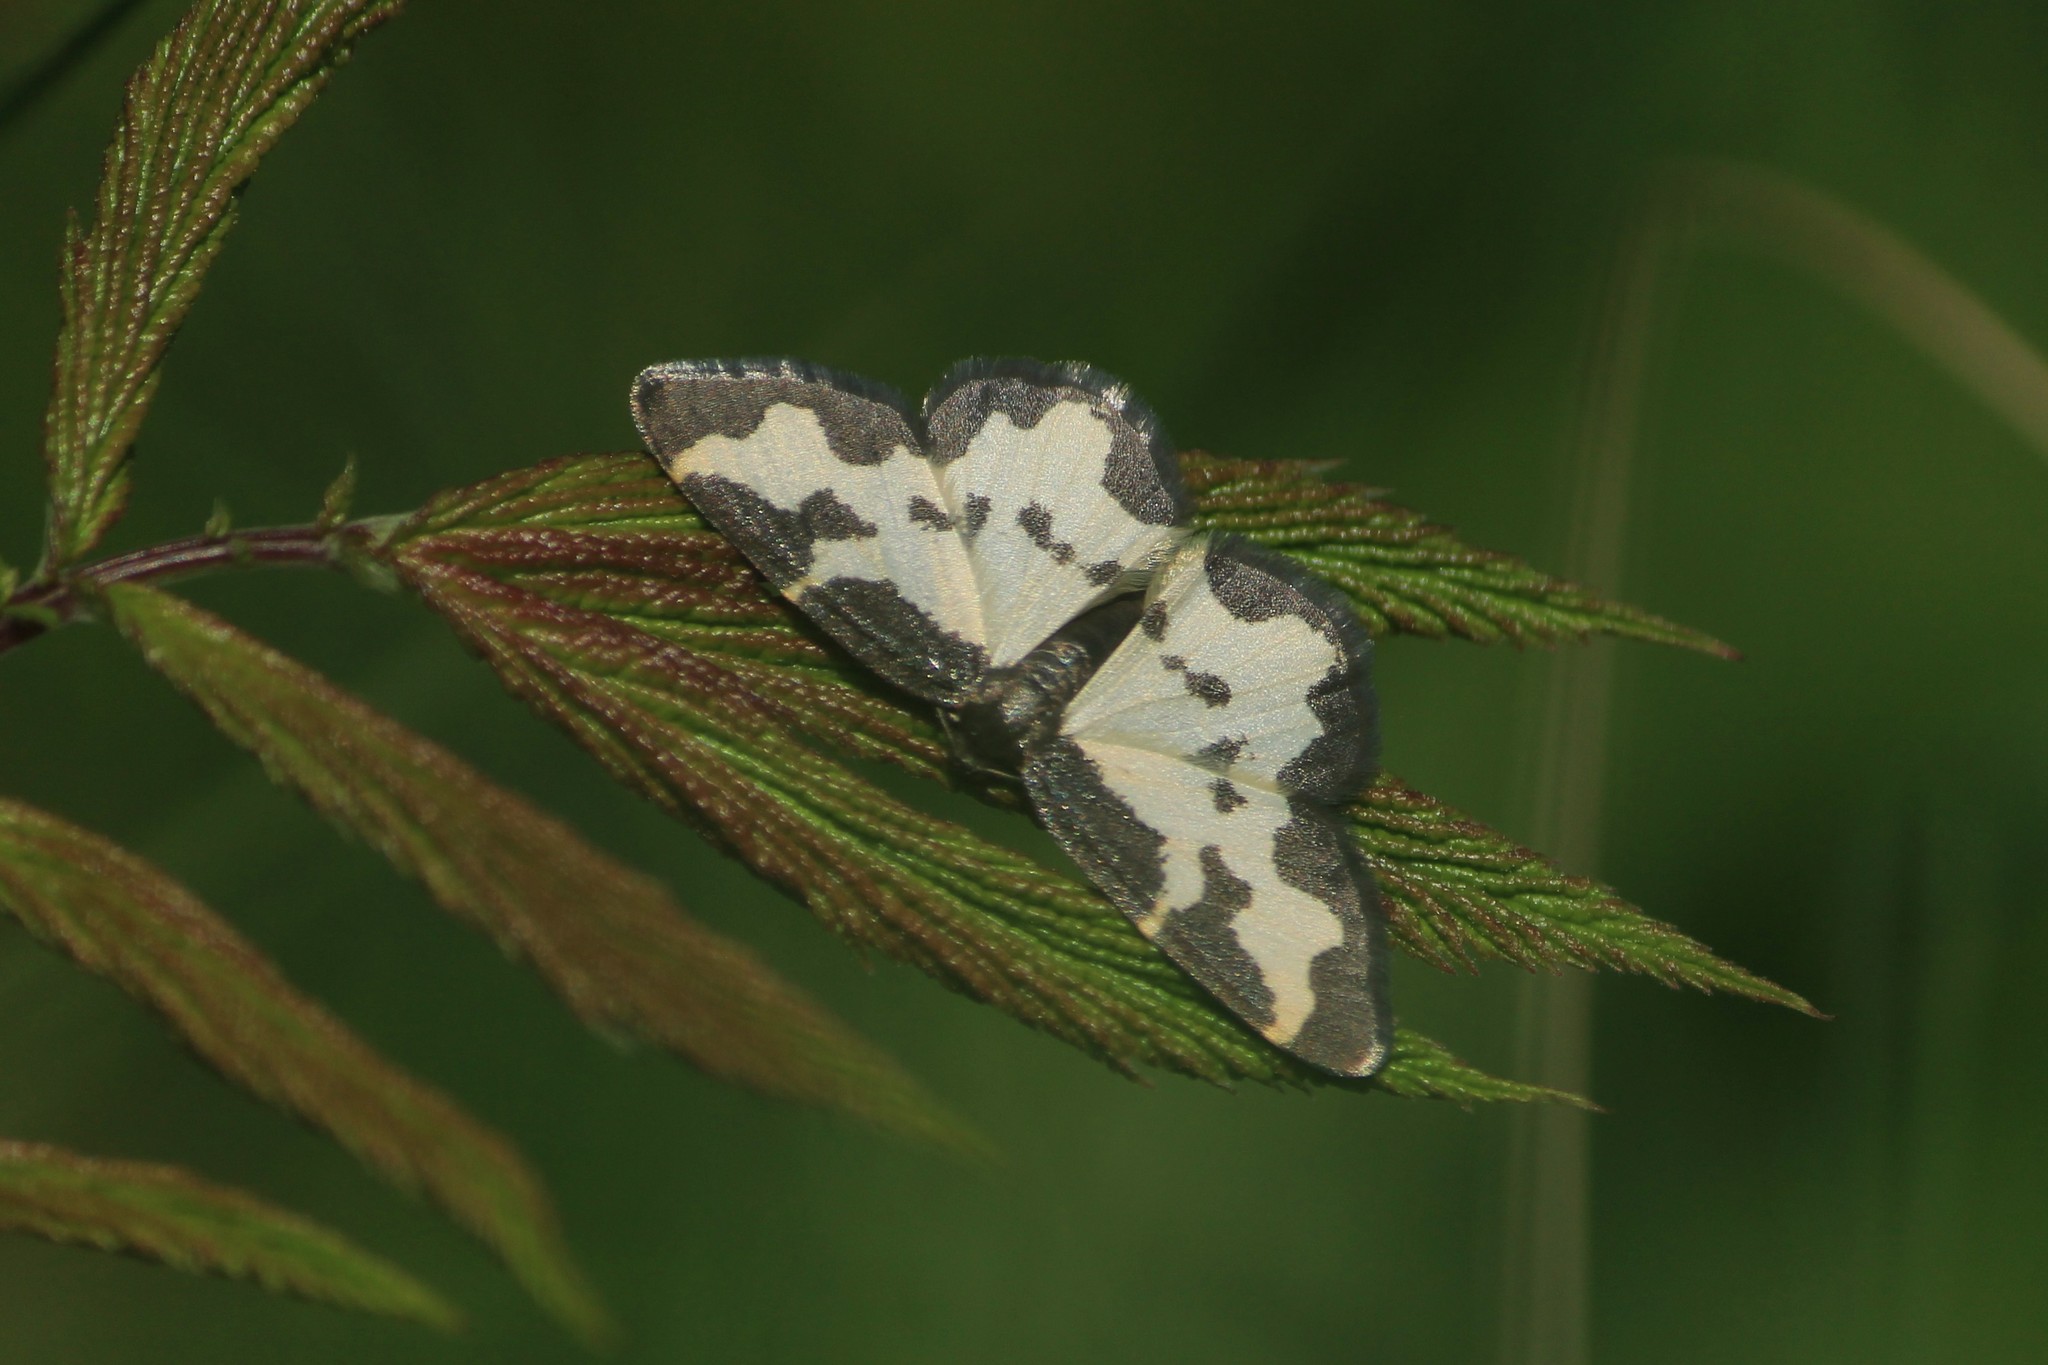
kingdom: Animalia
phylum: Arthropoda
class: Insecta
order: Lepidoptera
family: Geometridae
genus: Lomaspilis
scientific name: Lomaspilis marginata
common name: Clouded border
